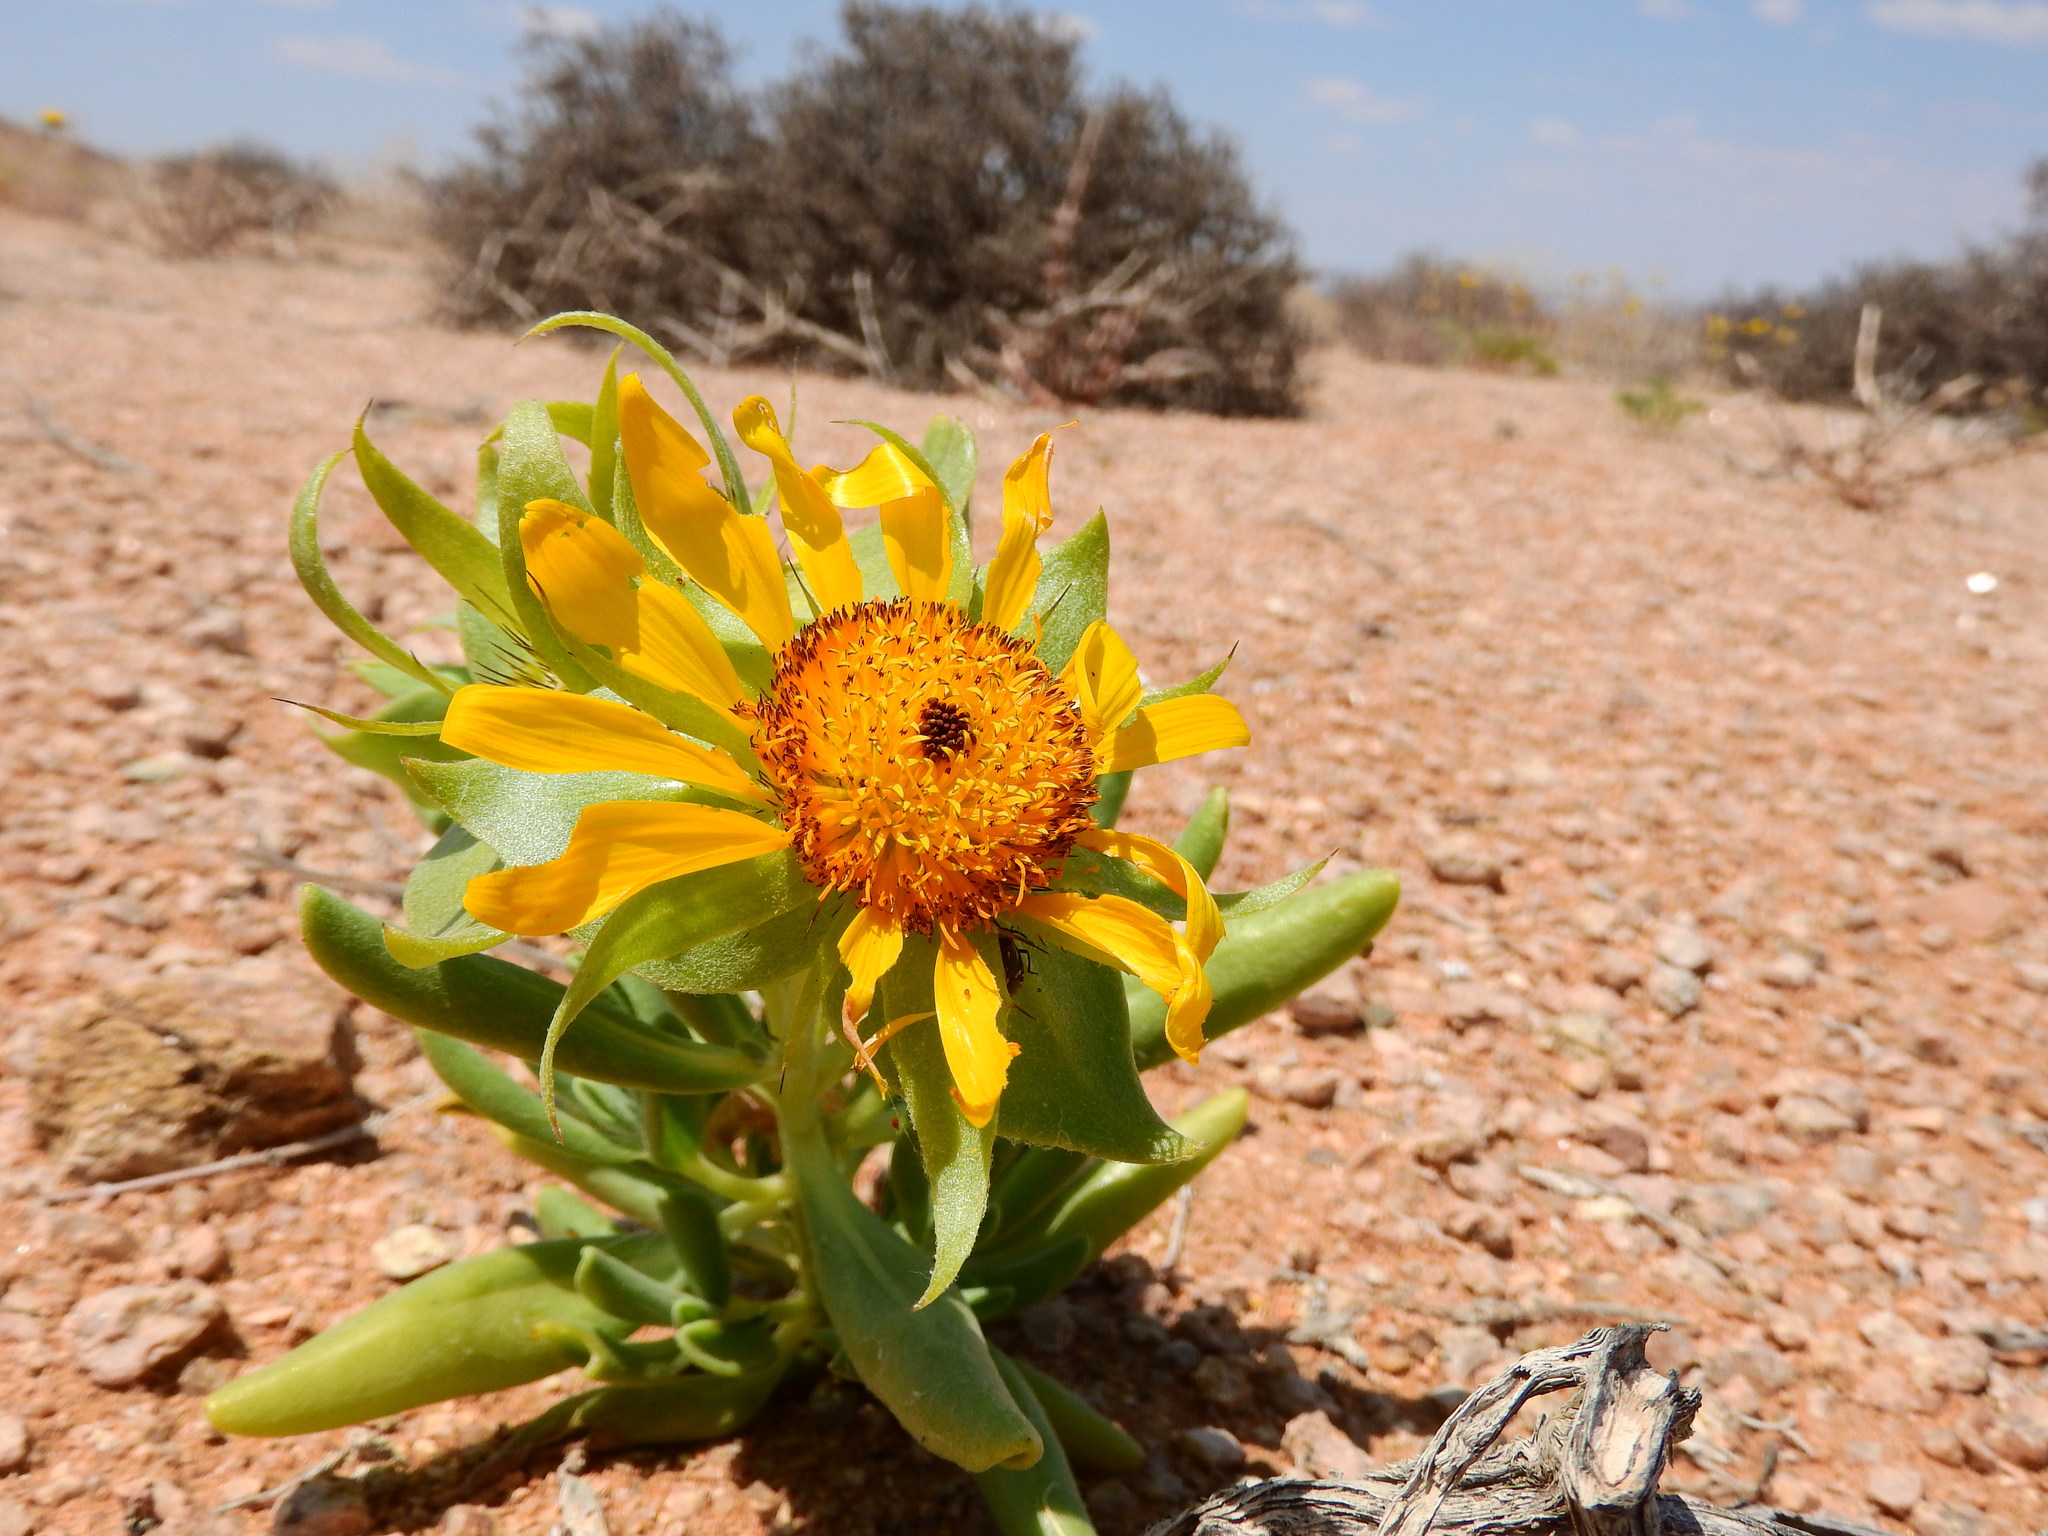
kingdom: Plantae
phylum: Tracheophyta
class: Magnoliopsida
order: Asterales
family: Asteraceae
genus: Didelta
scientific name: Didelta carnosa
